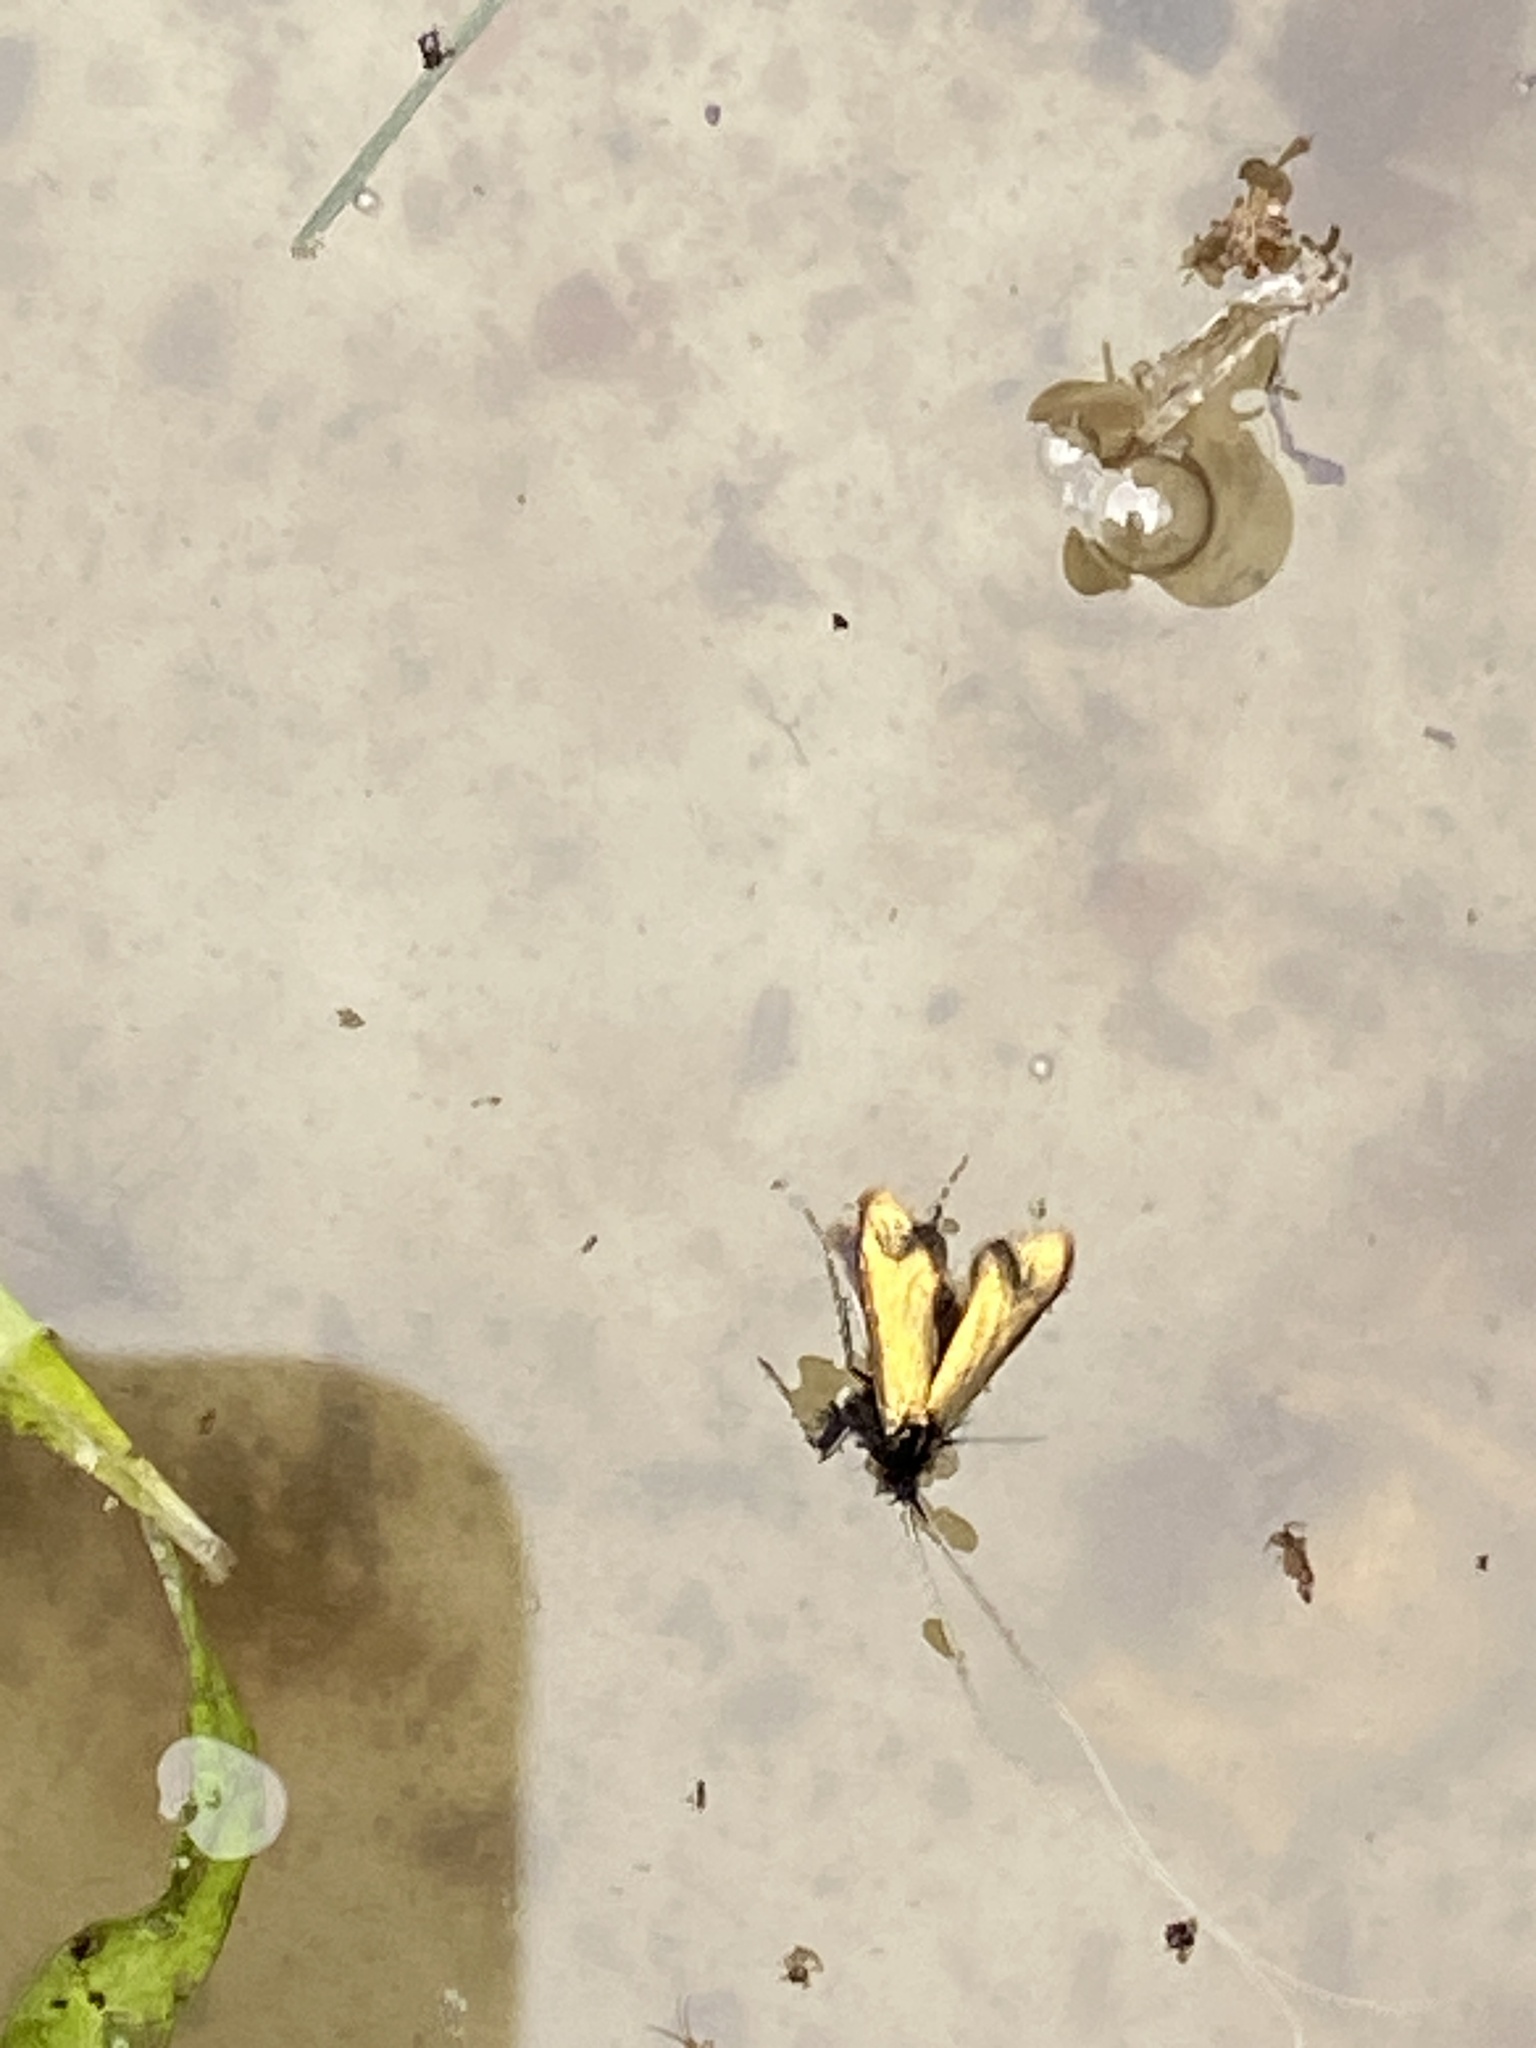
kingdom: Animalia
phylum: Arthropoda
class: Insecta
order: Lepidoptera
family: Adelidae
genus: Adela
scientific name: Adela viridella
